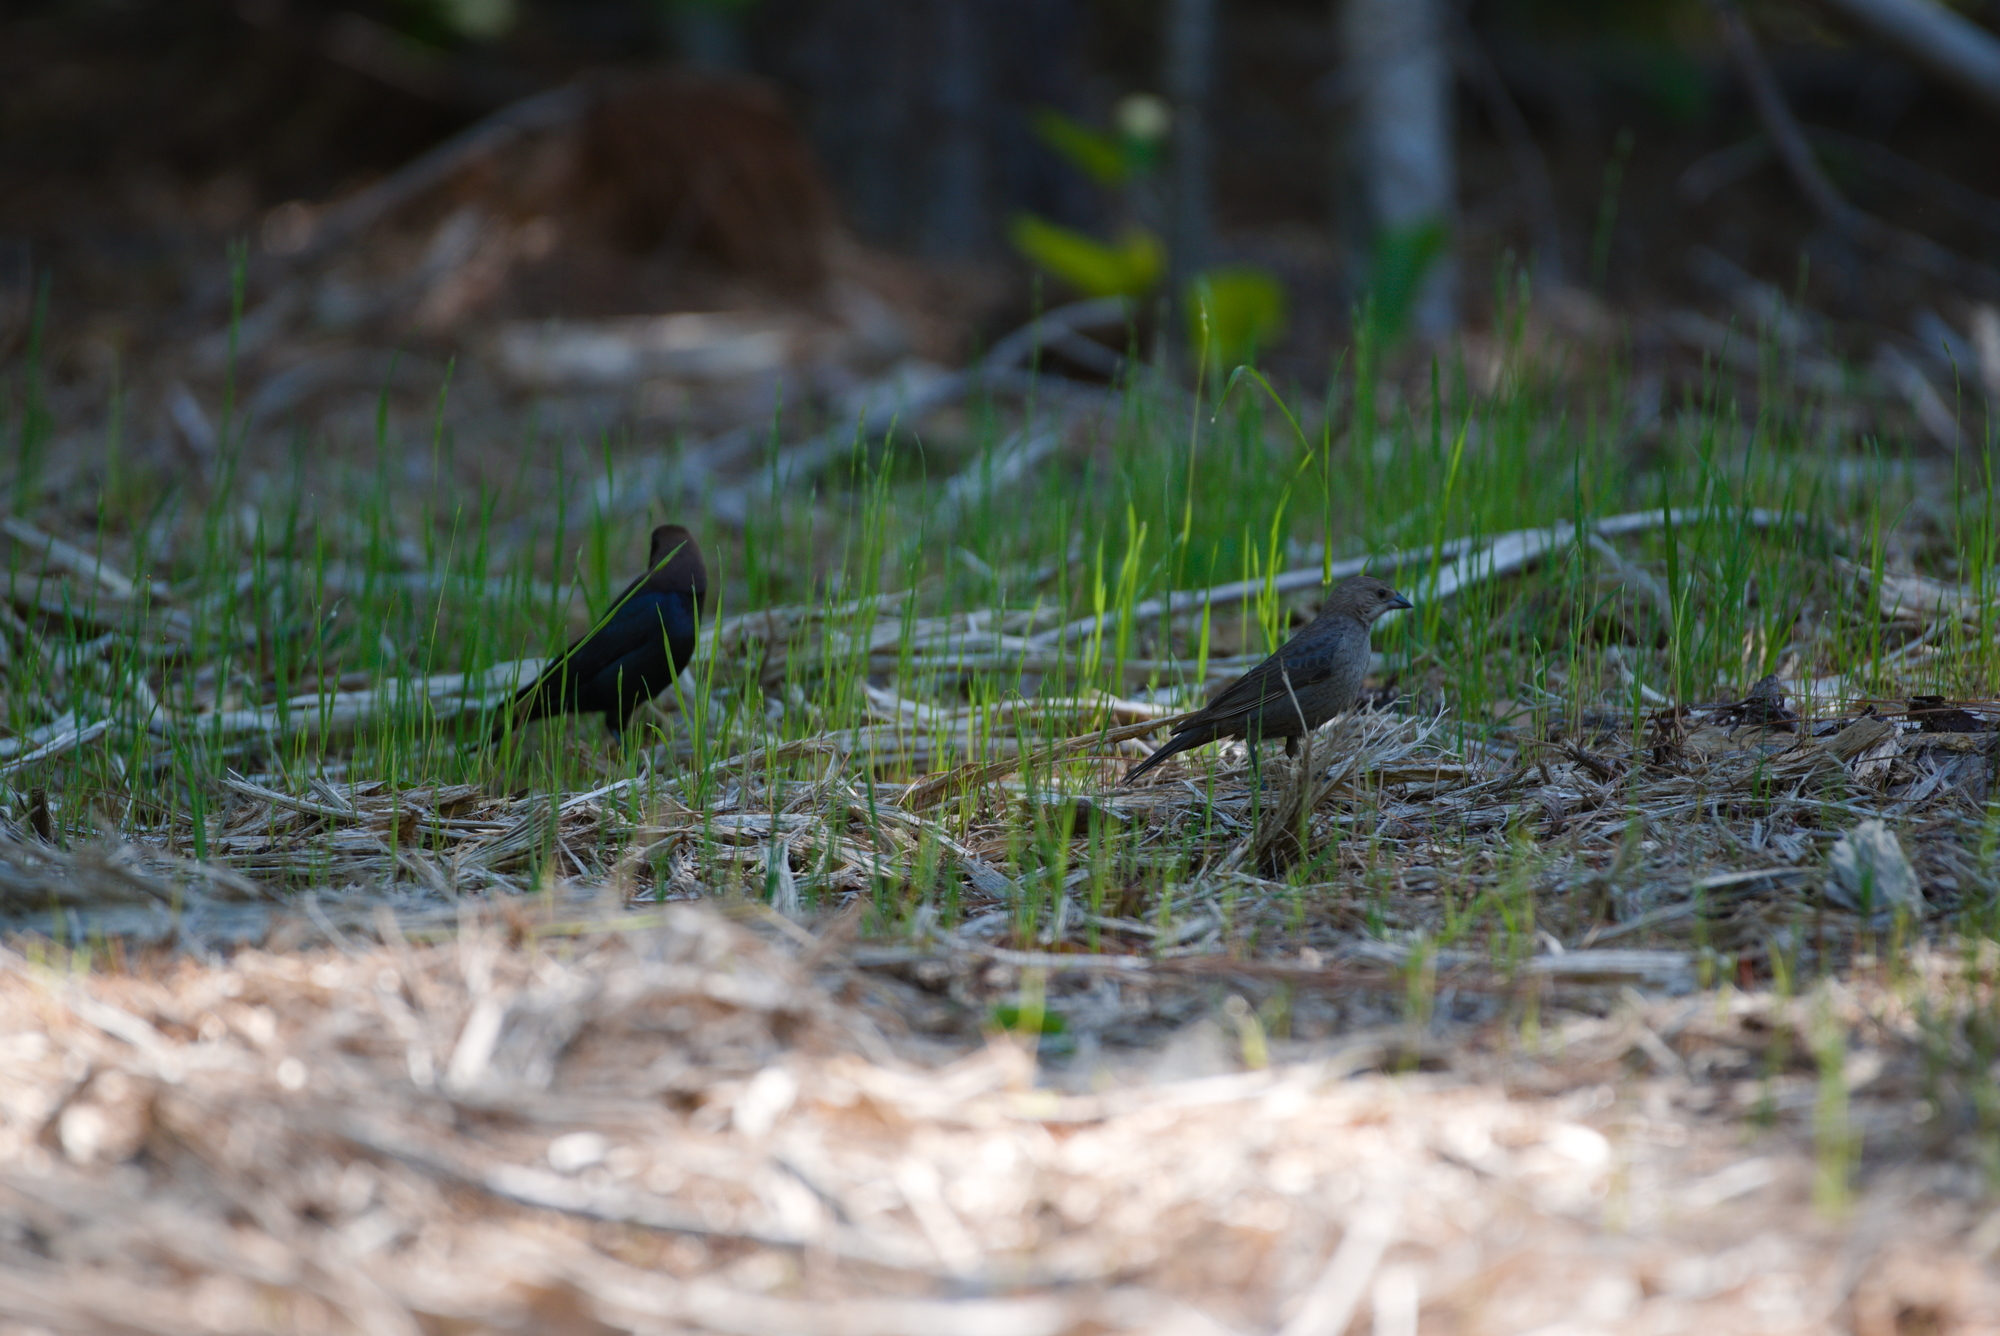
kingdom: Animalia
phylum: Chordata
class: Aves
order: Passeriformes
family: Icteridae
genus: Molothrus
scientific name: Molothrus ater
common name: Brown-headed cowbird
